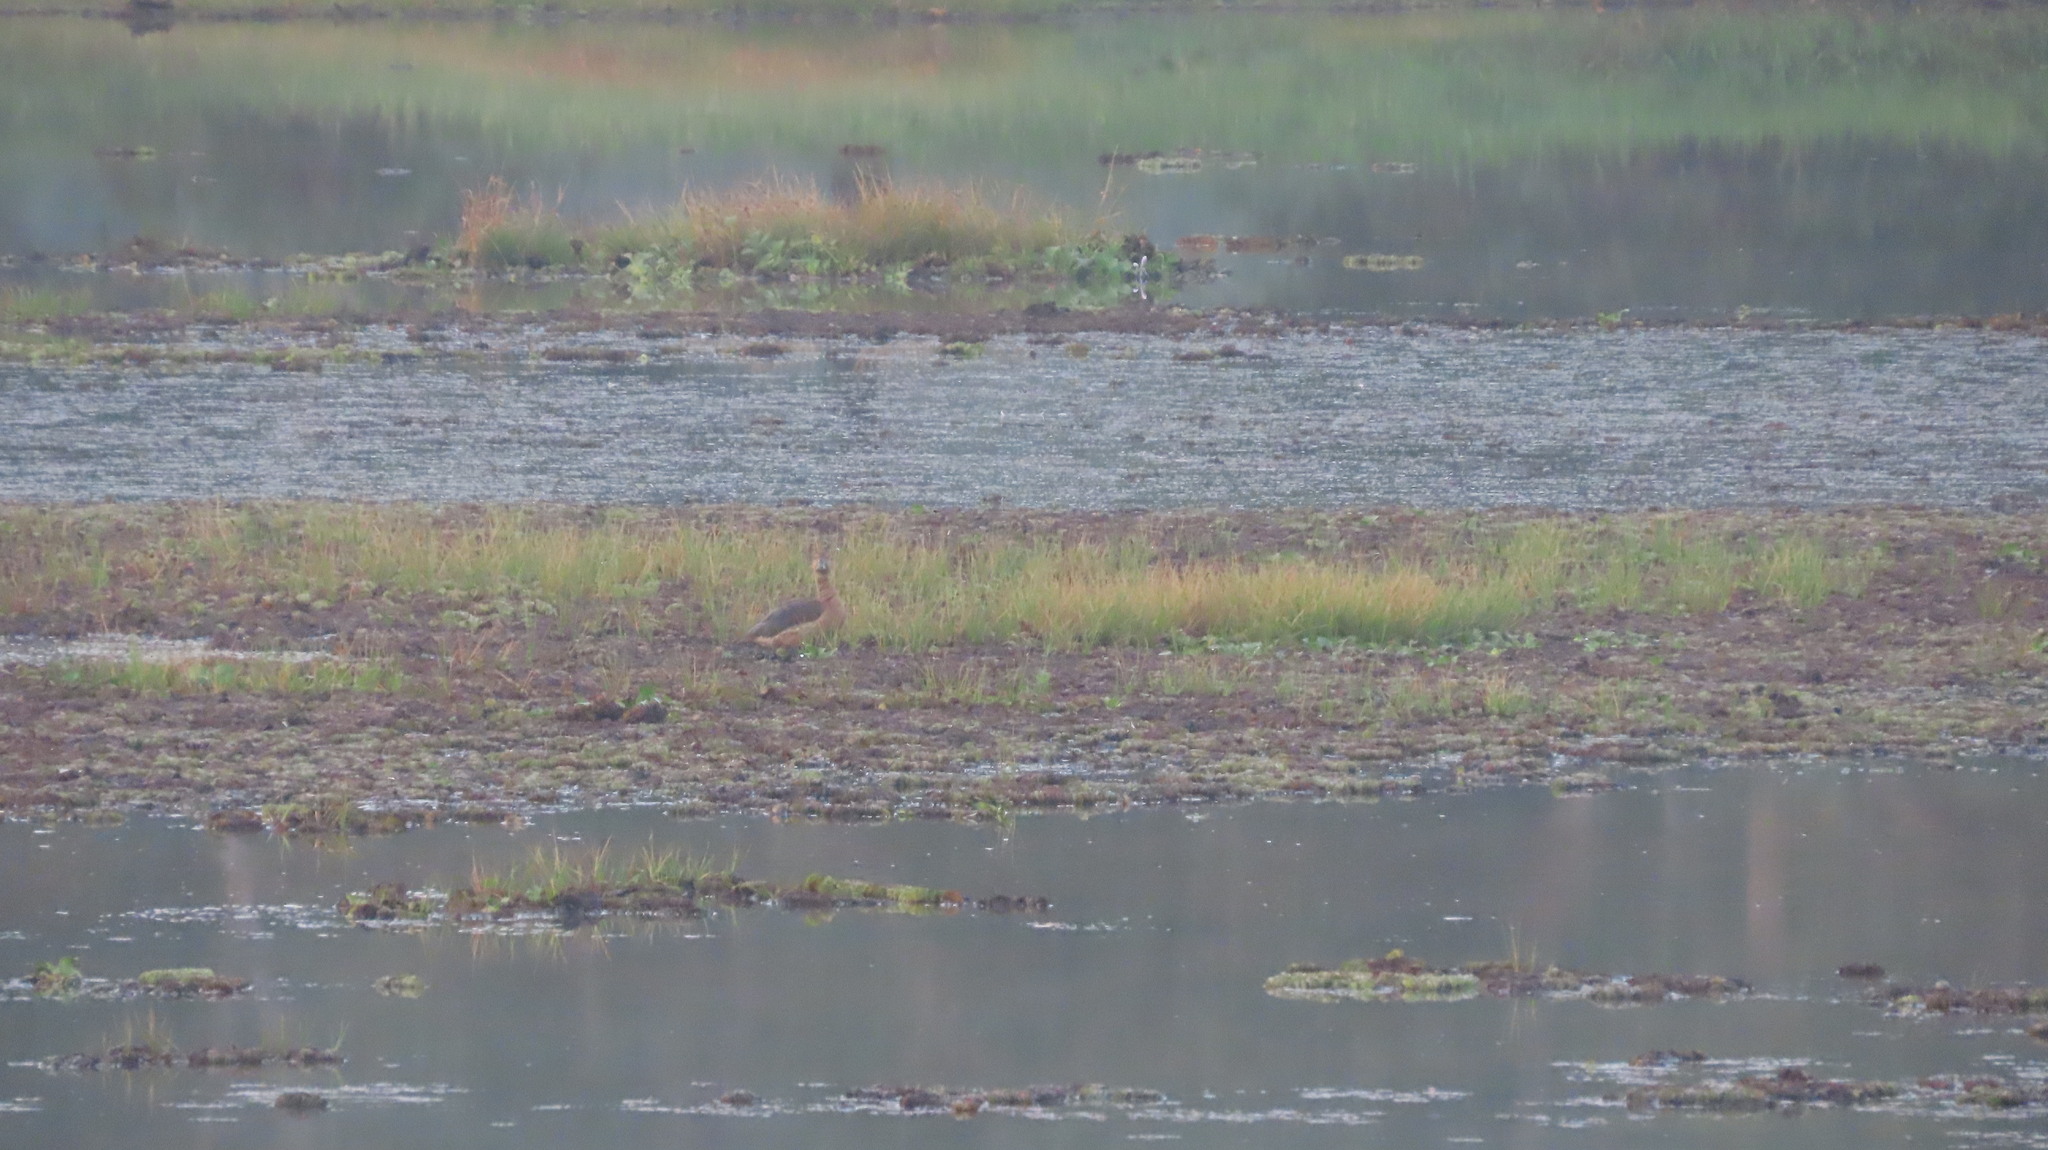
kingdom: Animalia
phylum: Chordata
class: Aves
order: Anseriformes
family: Anatidae
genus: Dendrocygna
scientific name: Dendrocygna javanica
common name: Lesser whistling-duck
